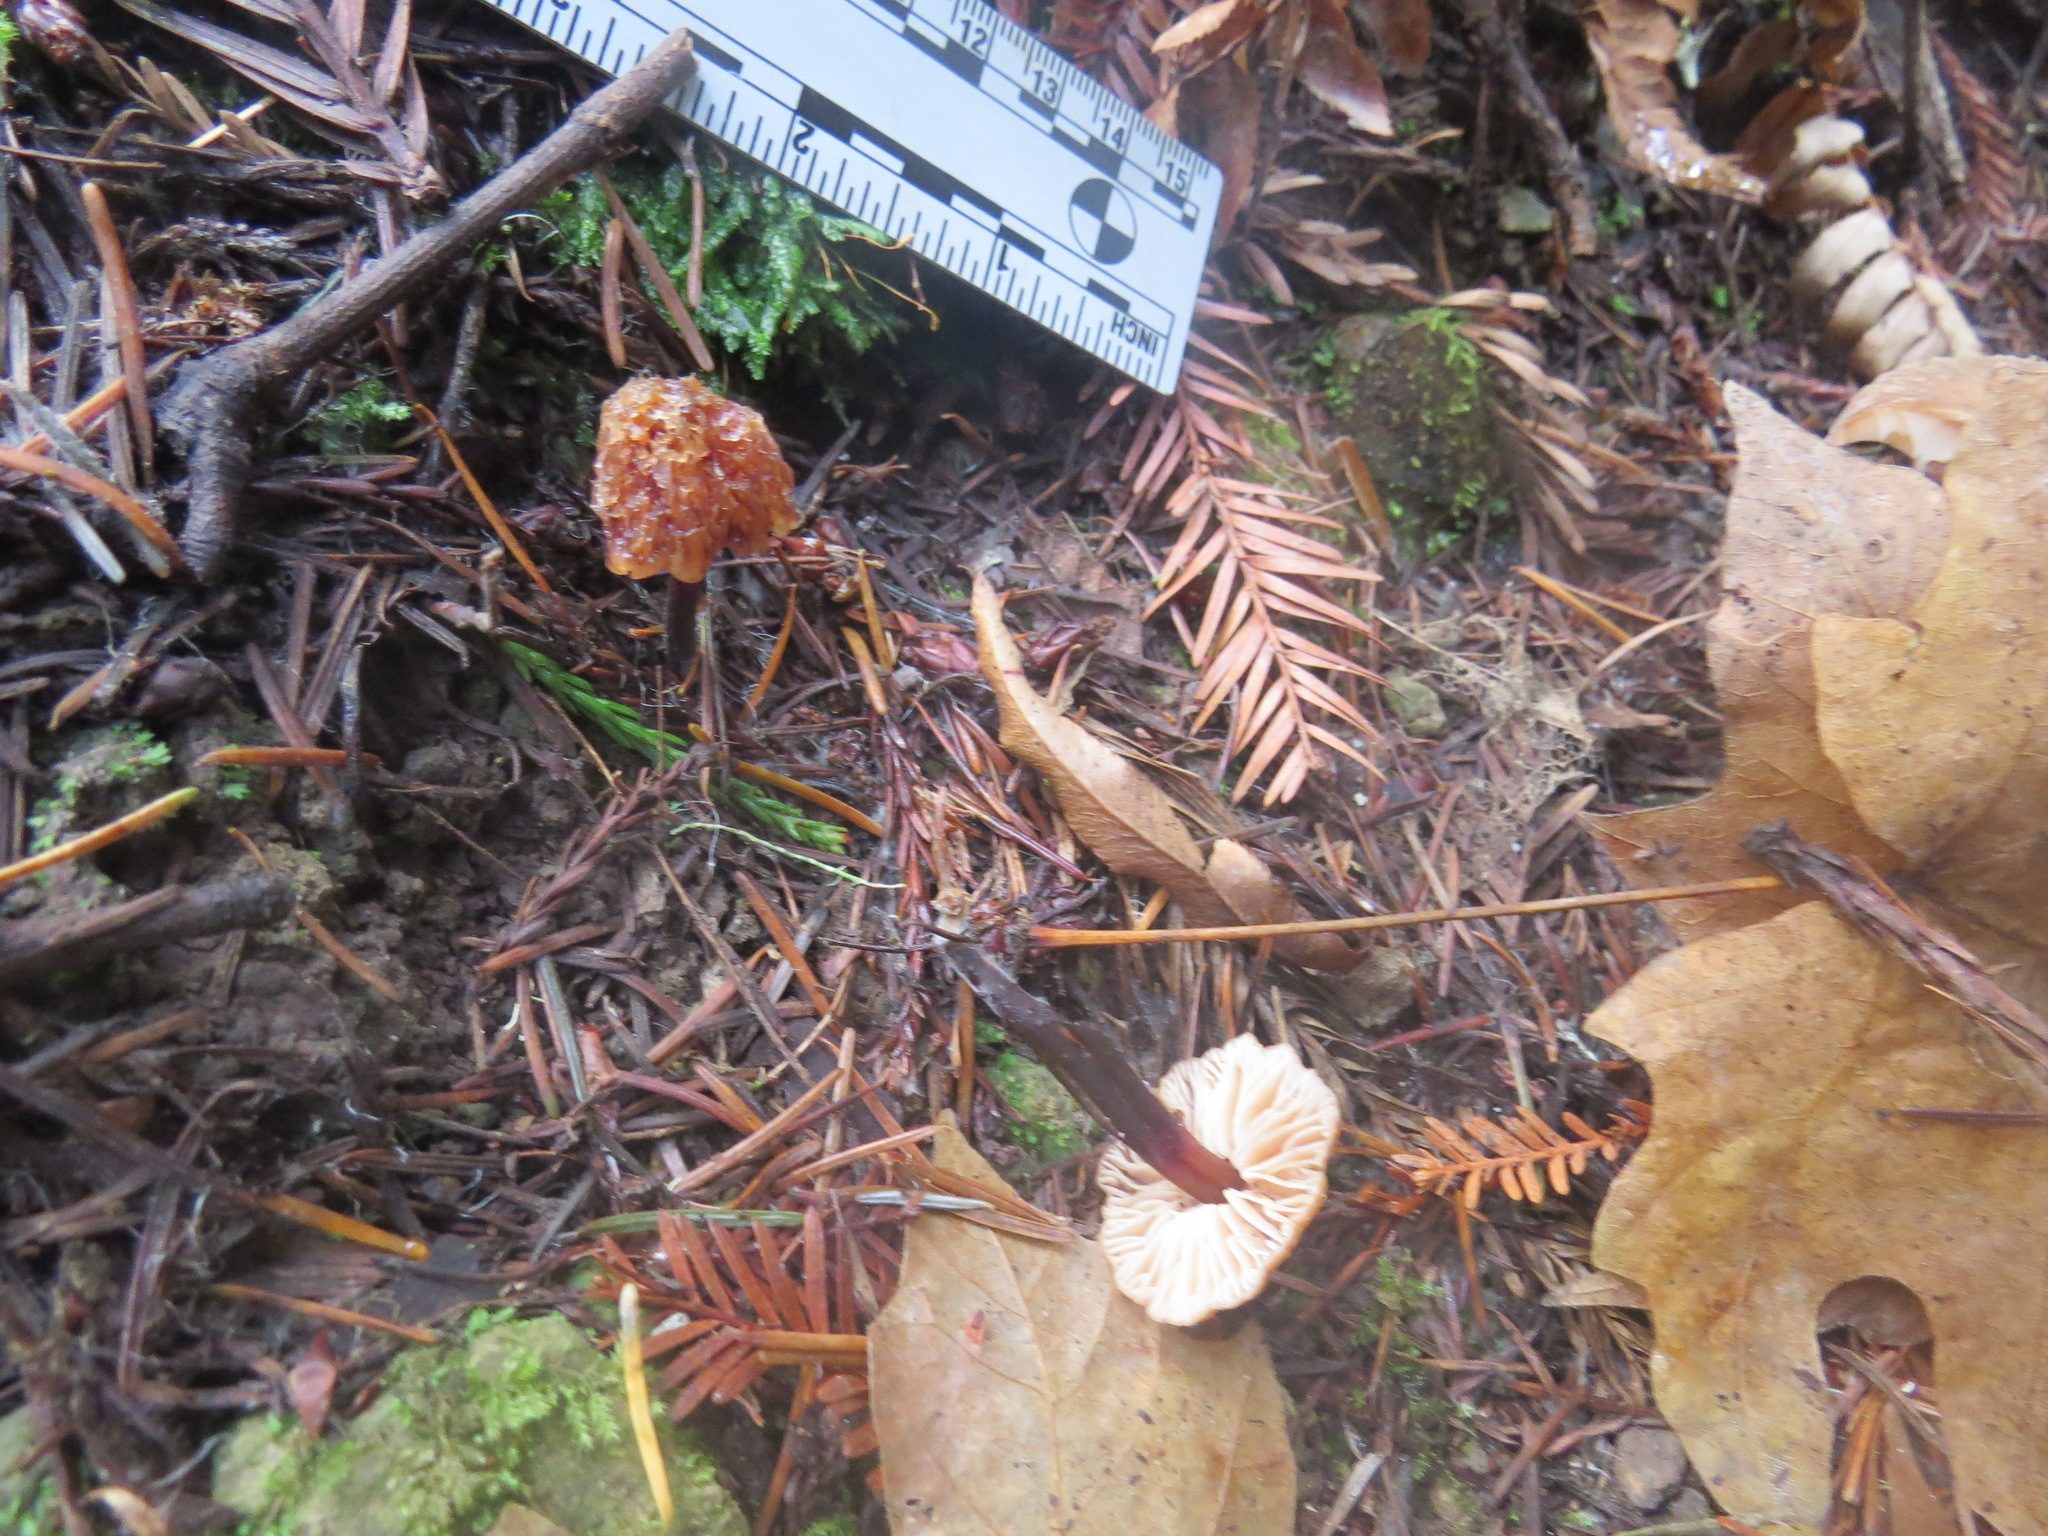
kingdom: Fungi
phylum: Basidiomycota
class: Agaricomycetes
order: Agaricales
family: Omphalotaceae
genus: Gymnopus
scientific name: Gymnopus brassicolens
